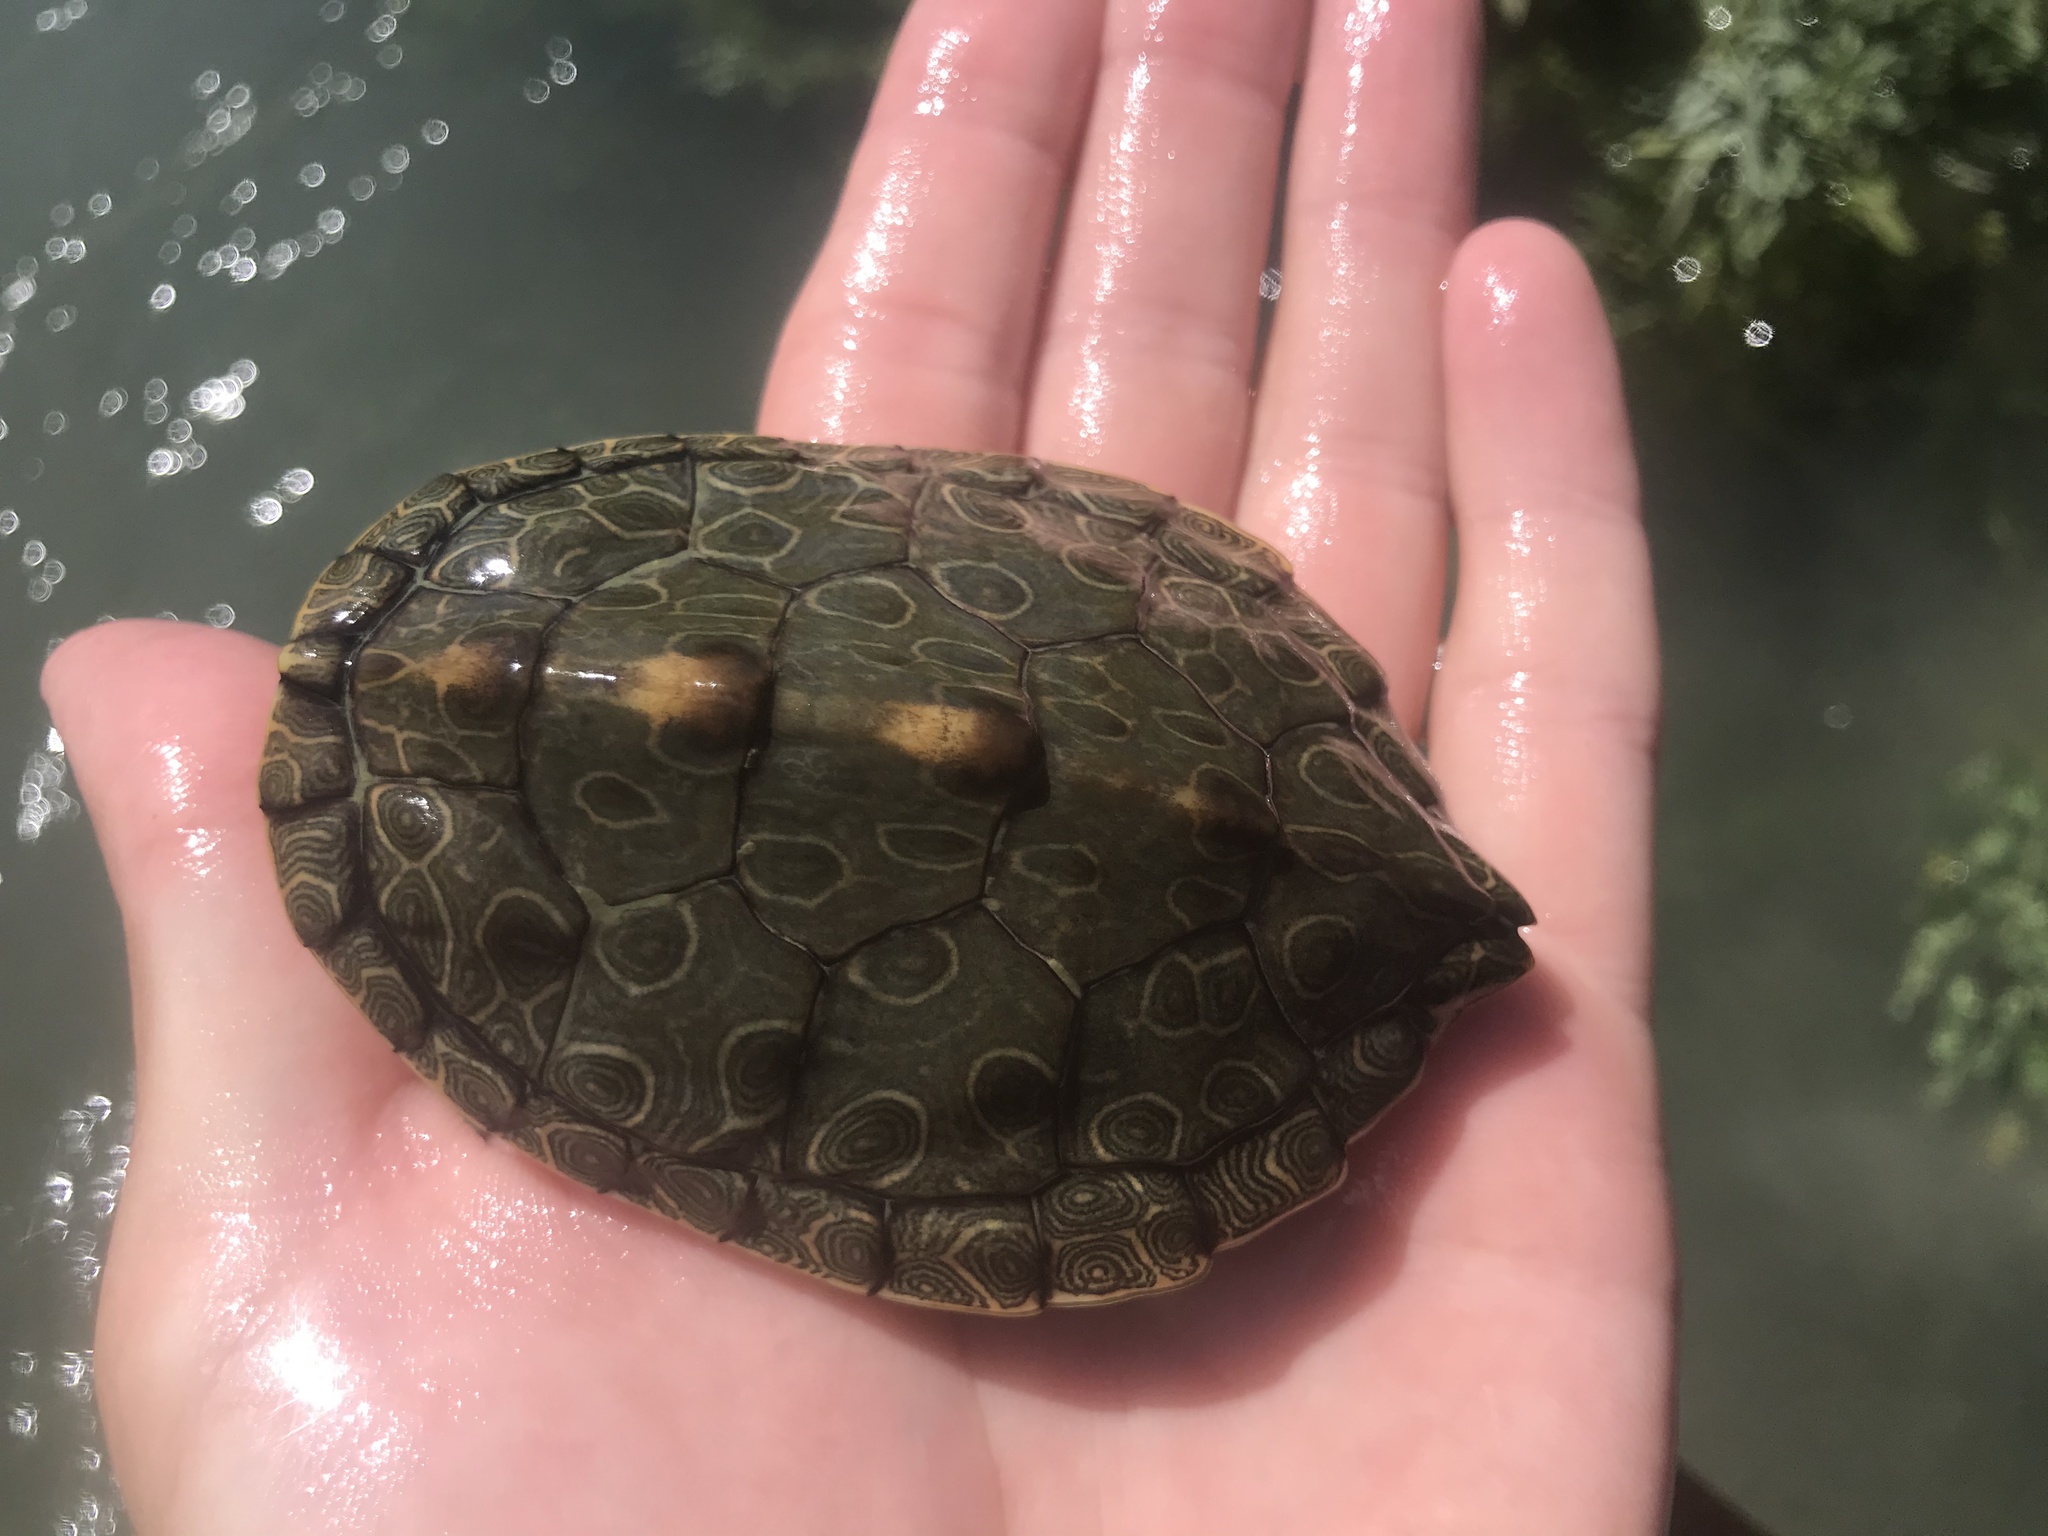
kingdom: Animalia
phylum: Chordata
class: Testudines
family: Emydidae
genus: Graptemys
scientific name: Graptemys versa
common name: Texas map turtle
